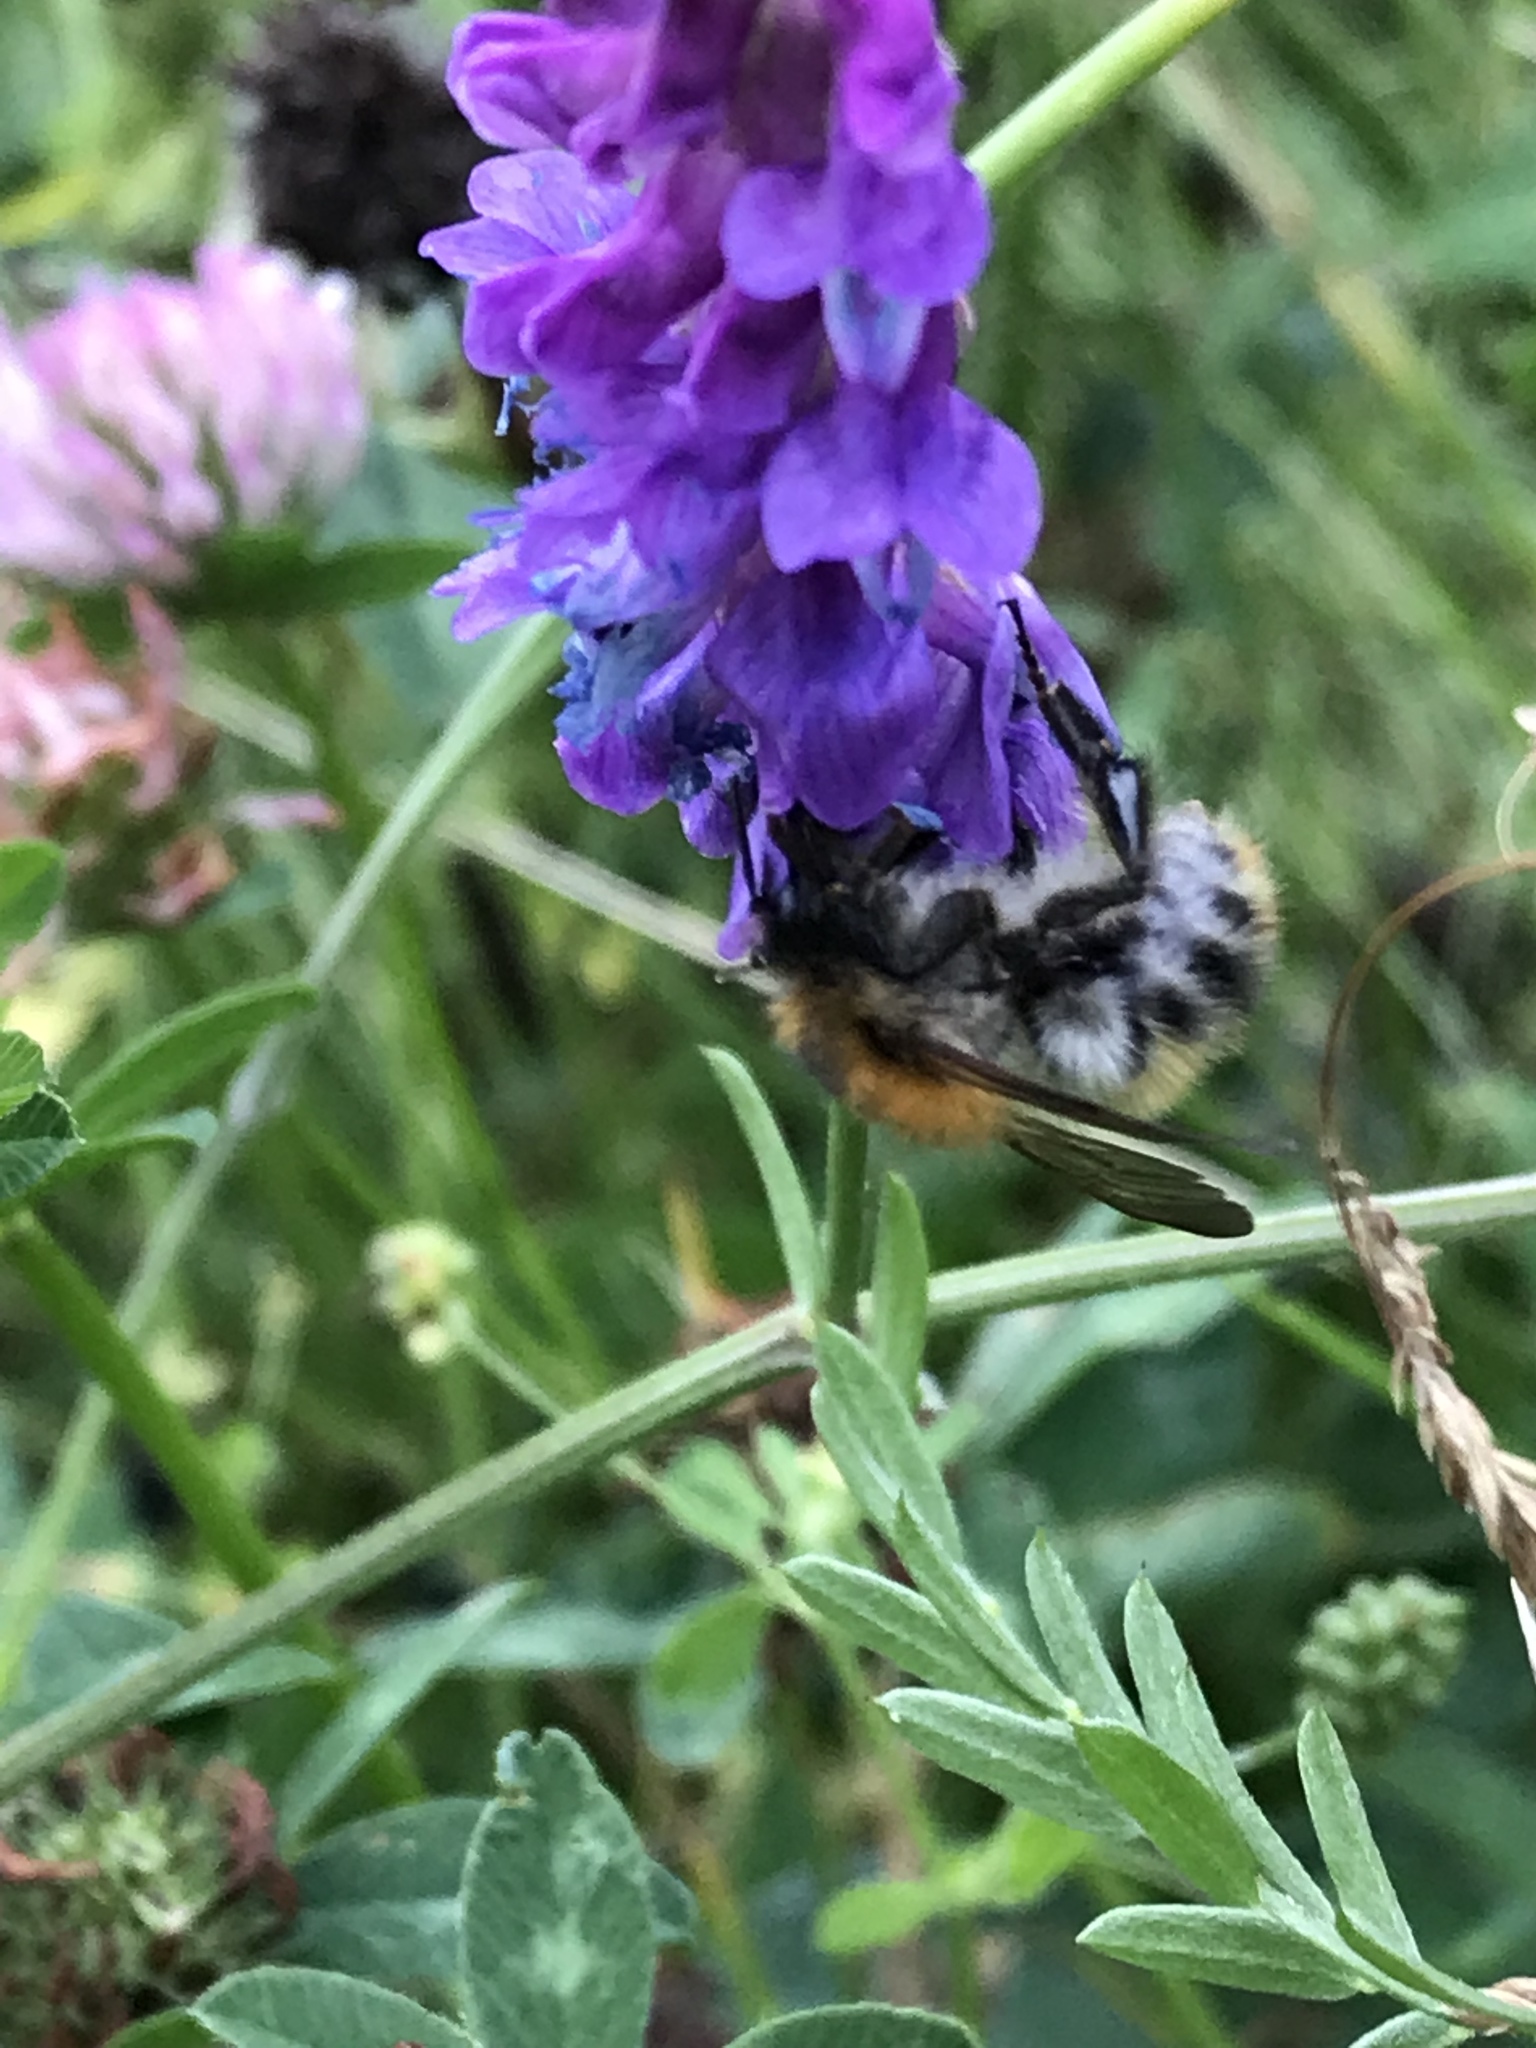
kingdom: Animalia
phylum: Arthropoda
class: Insecta
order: Hymenoptera
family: Apidae
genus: Bombus
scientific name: Bombus pascuorum
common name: Common carder bee
